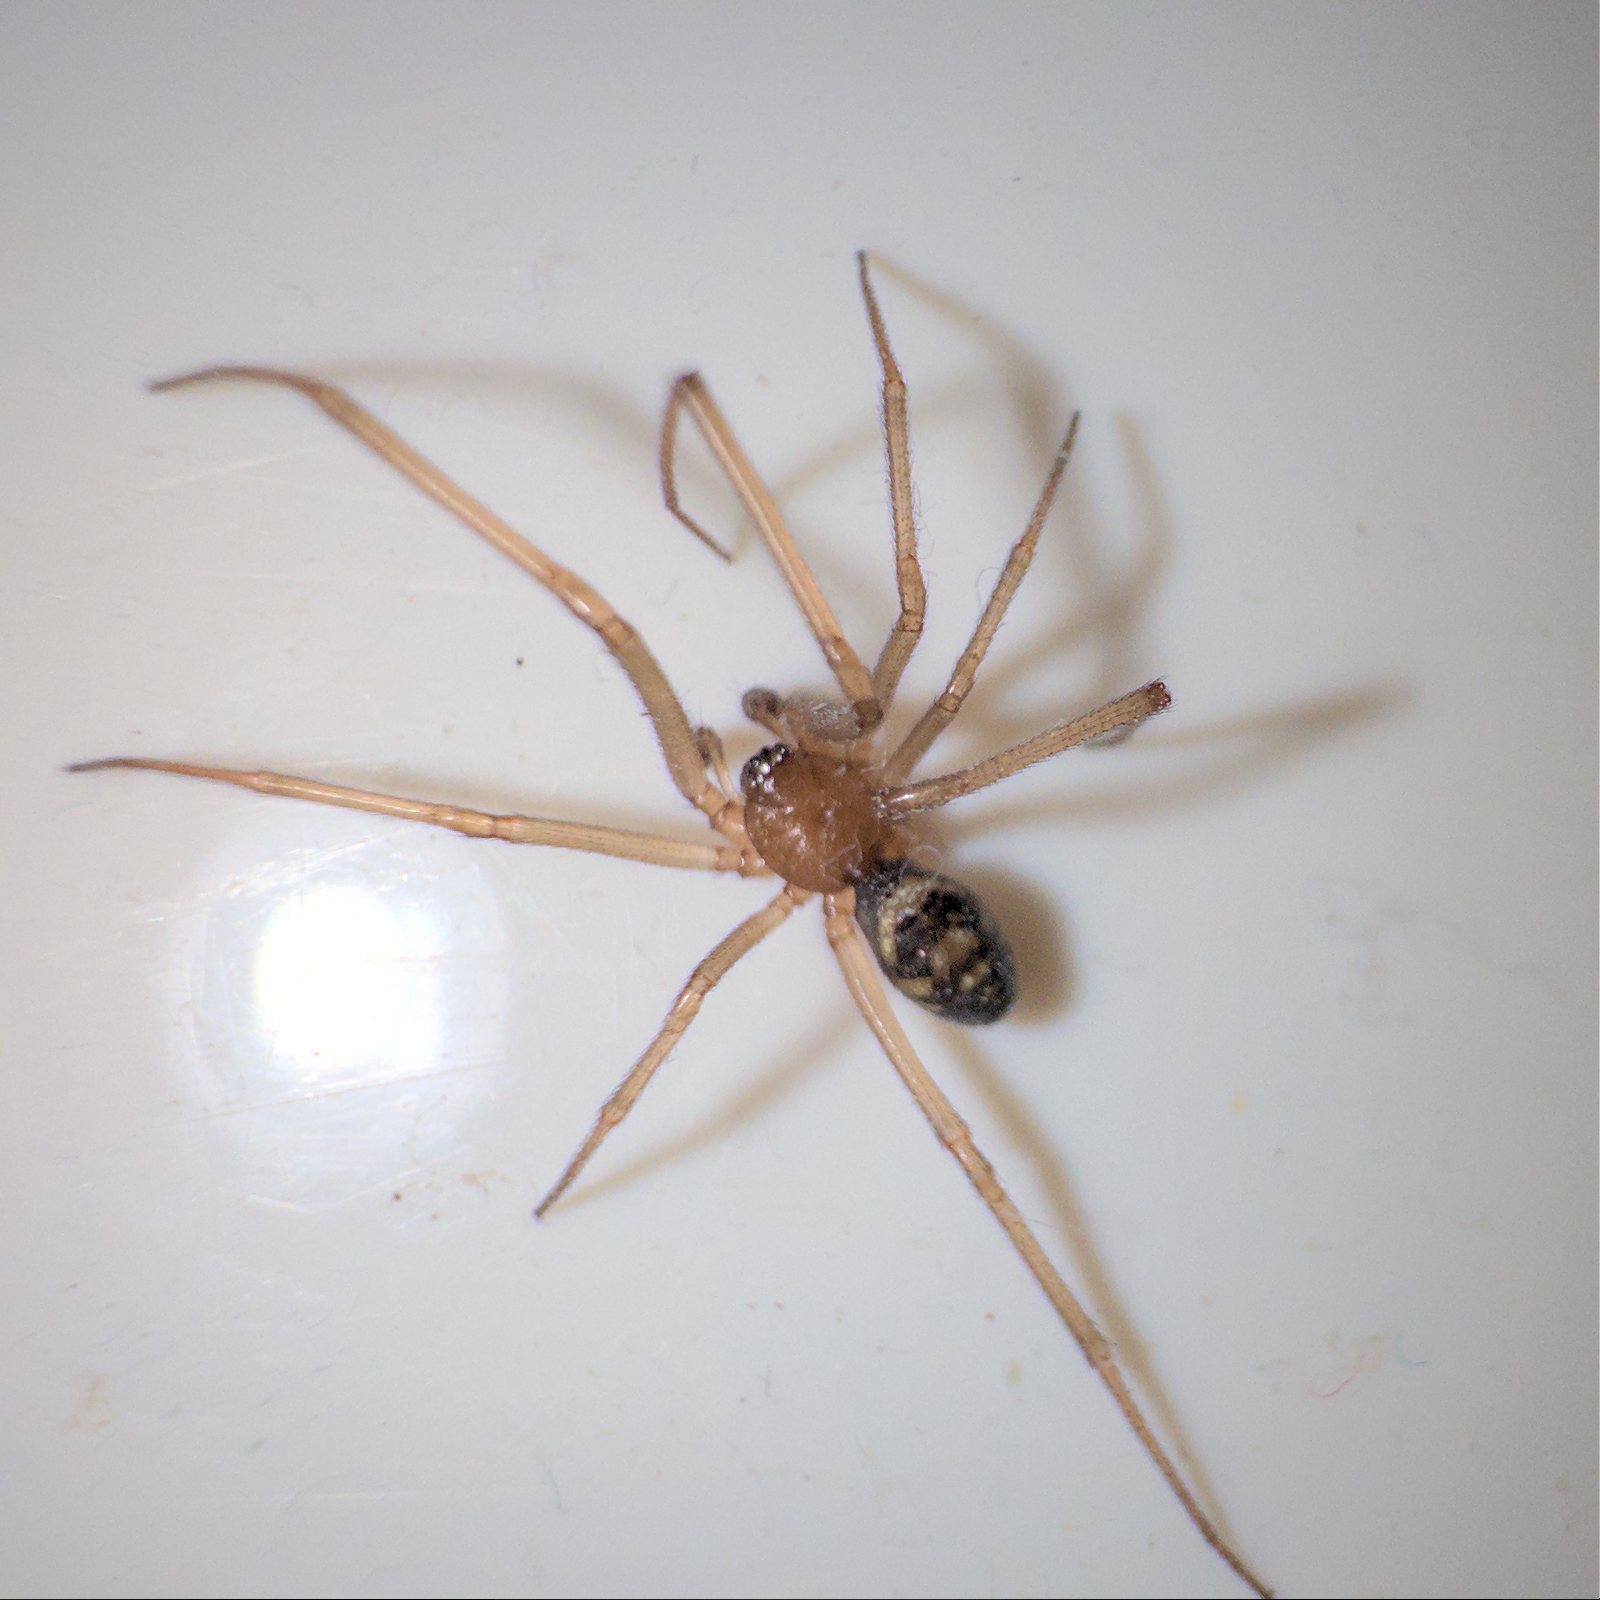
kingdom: Animalia
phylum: Arthropoda
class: Arachnida
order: Araneae
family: Theridiidae
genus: Steatoda
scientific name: Steatoda grossa
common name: False black widow
